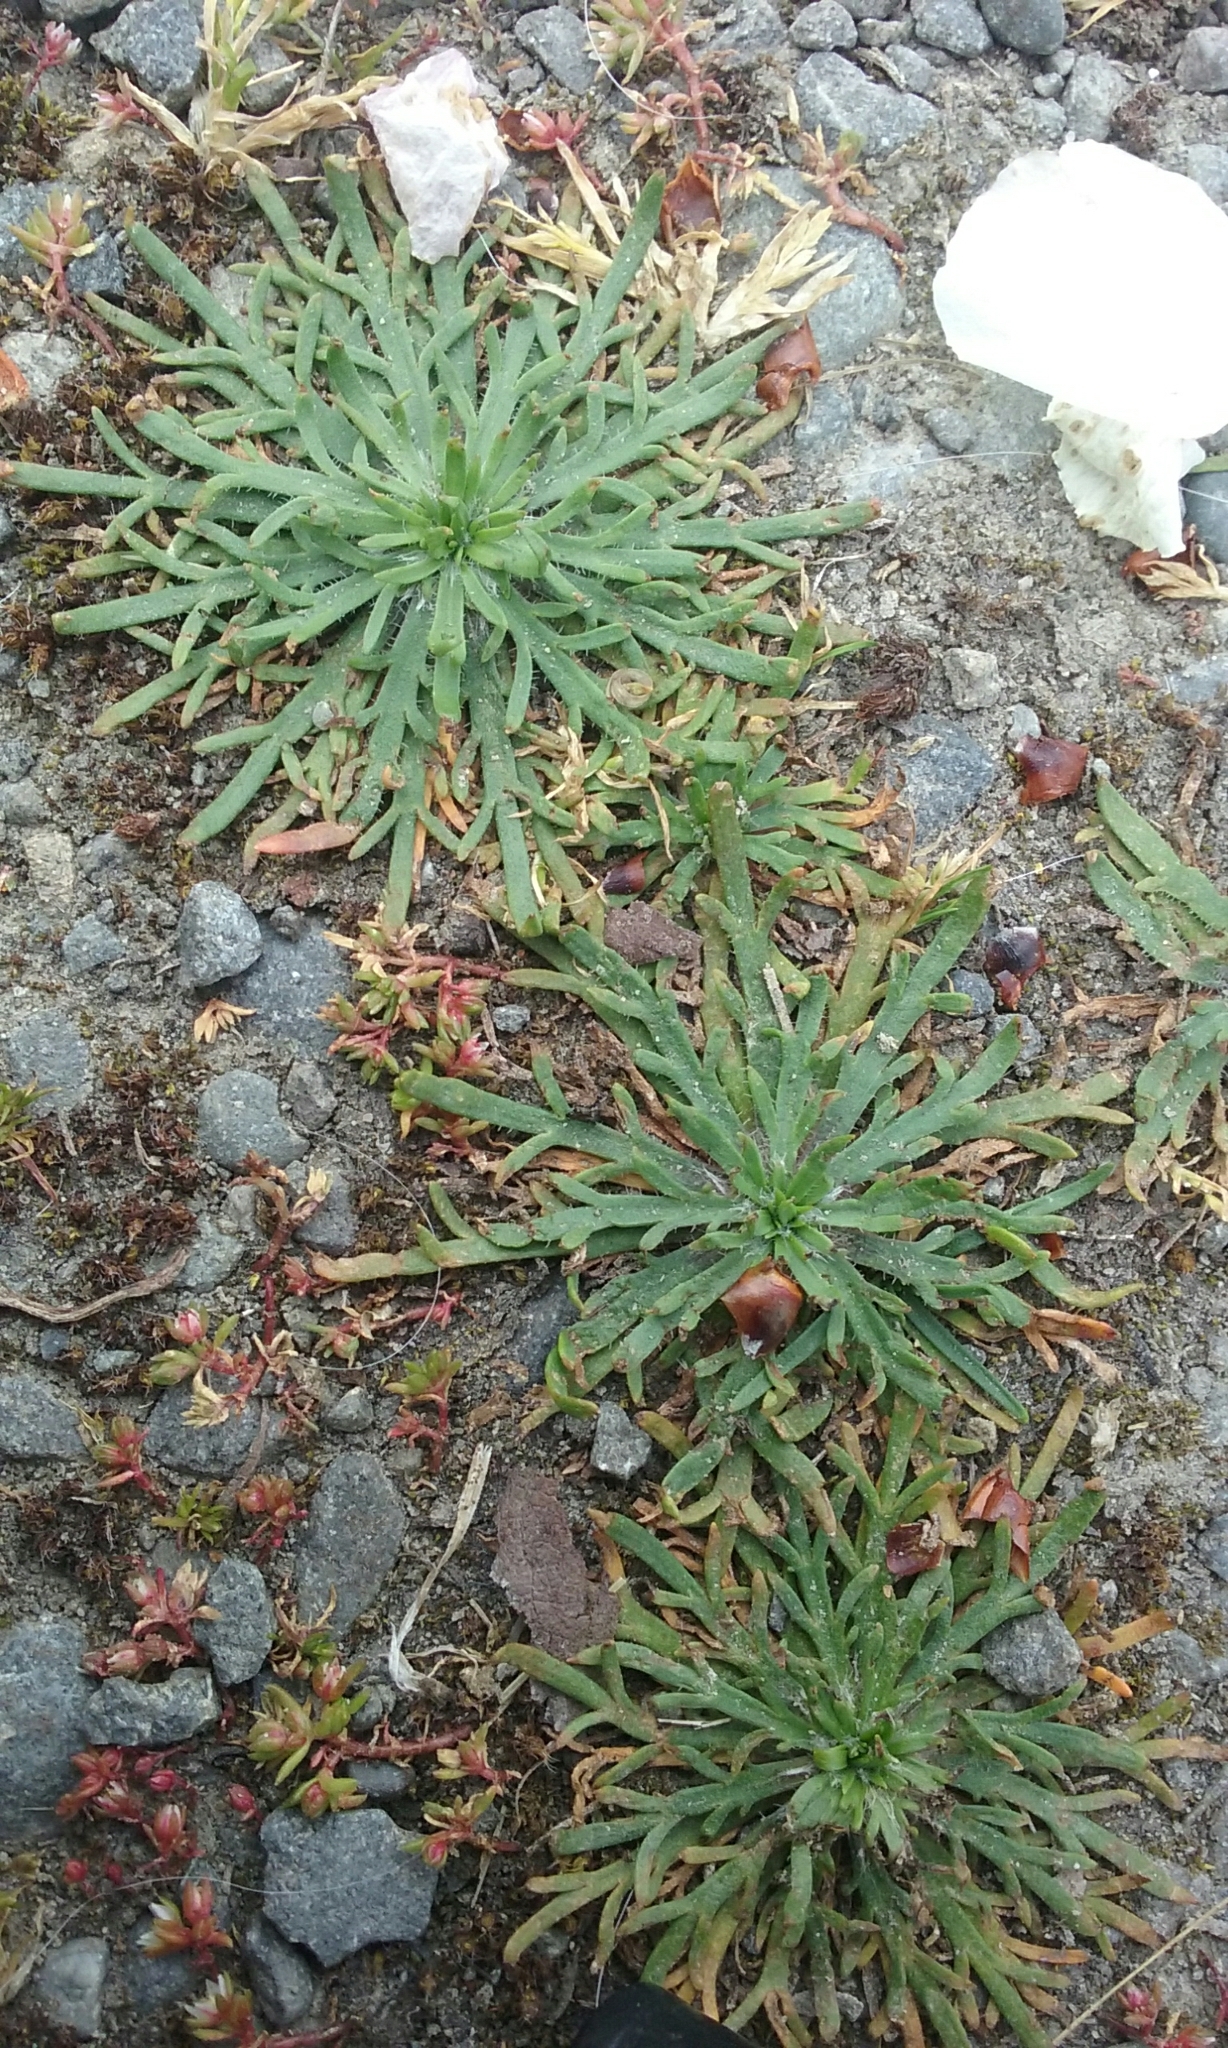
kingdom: Plantae
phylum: Tracheophyta
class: Magnoliopsida
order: Lamiales
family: Plantaginaceae
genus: Plantago
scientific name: Plantago coronopus
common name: Buck's-horn plantain
